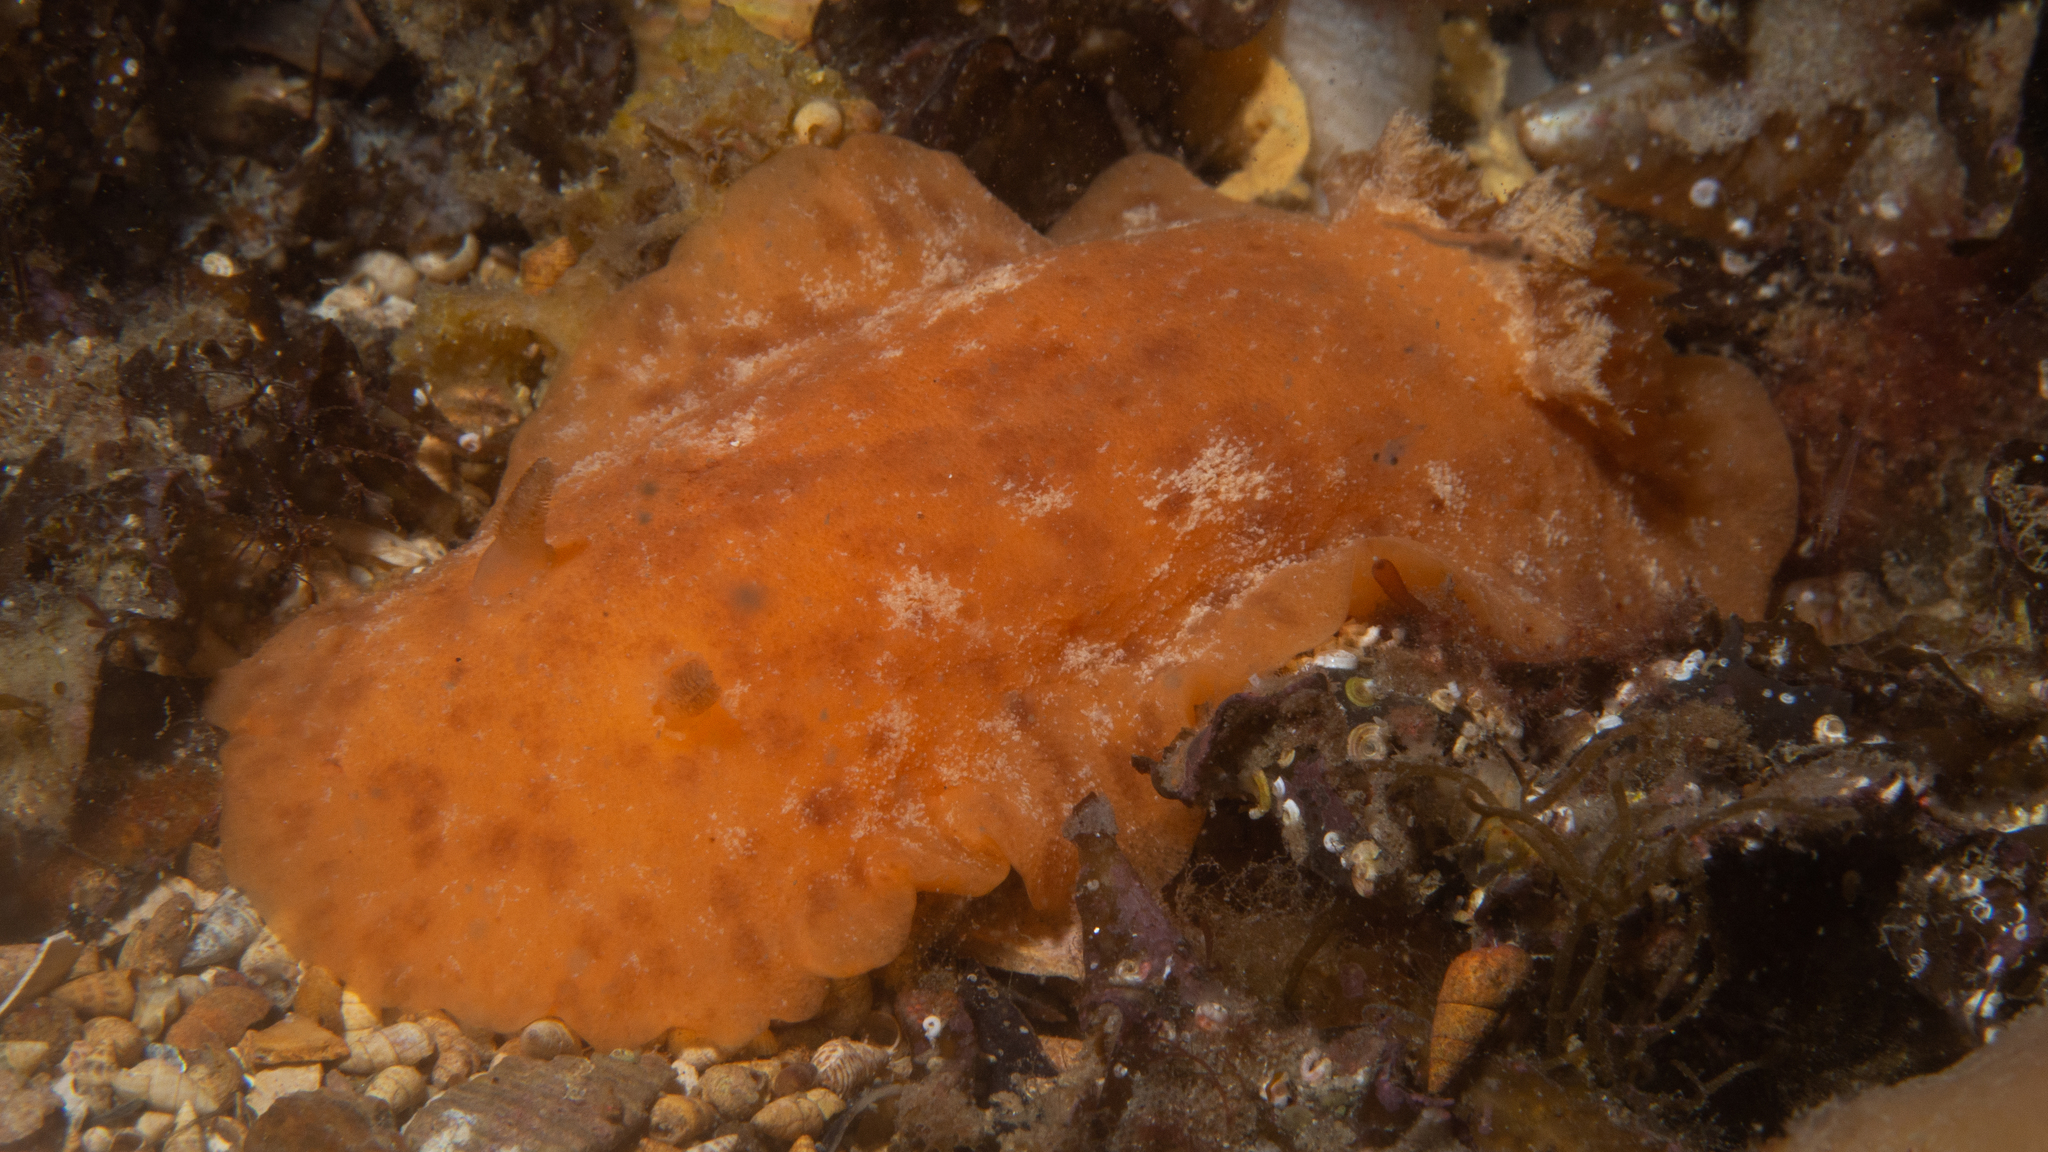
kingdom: Animalia
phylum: Mollusca
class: Gastropoda
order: Nudibranchia
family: Discodorididae
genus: Sclerodoris
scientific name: Sclerodoris tarka
